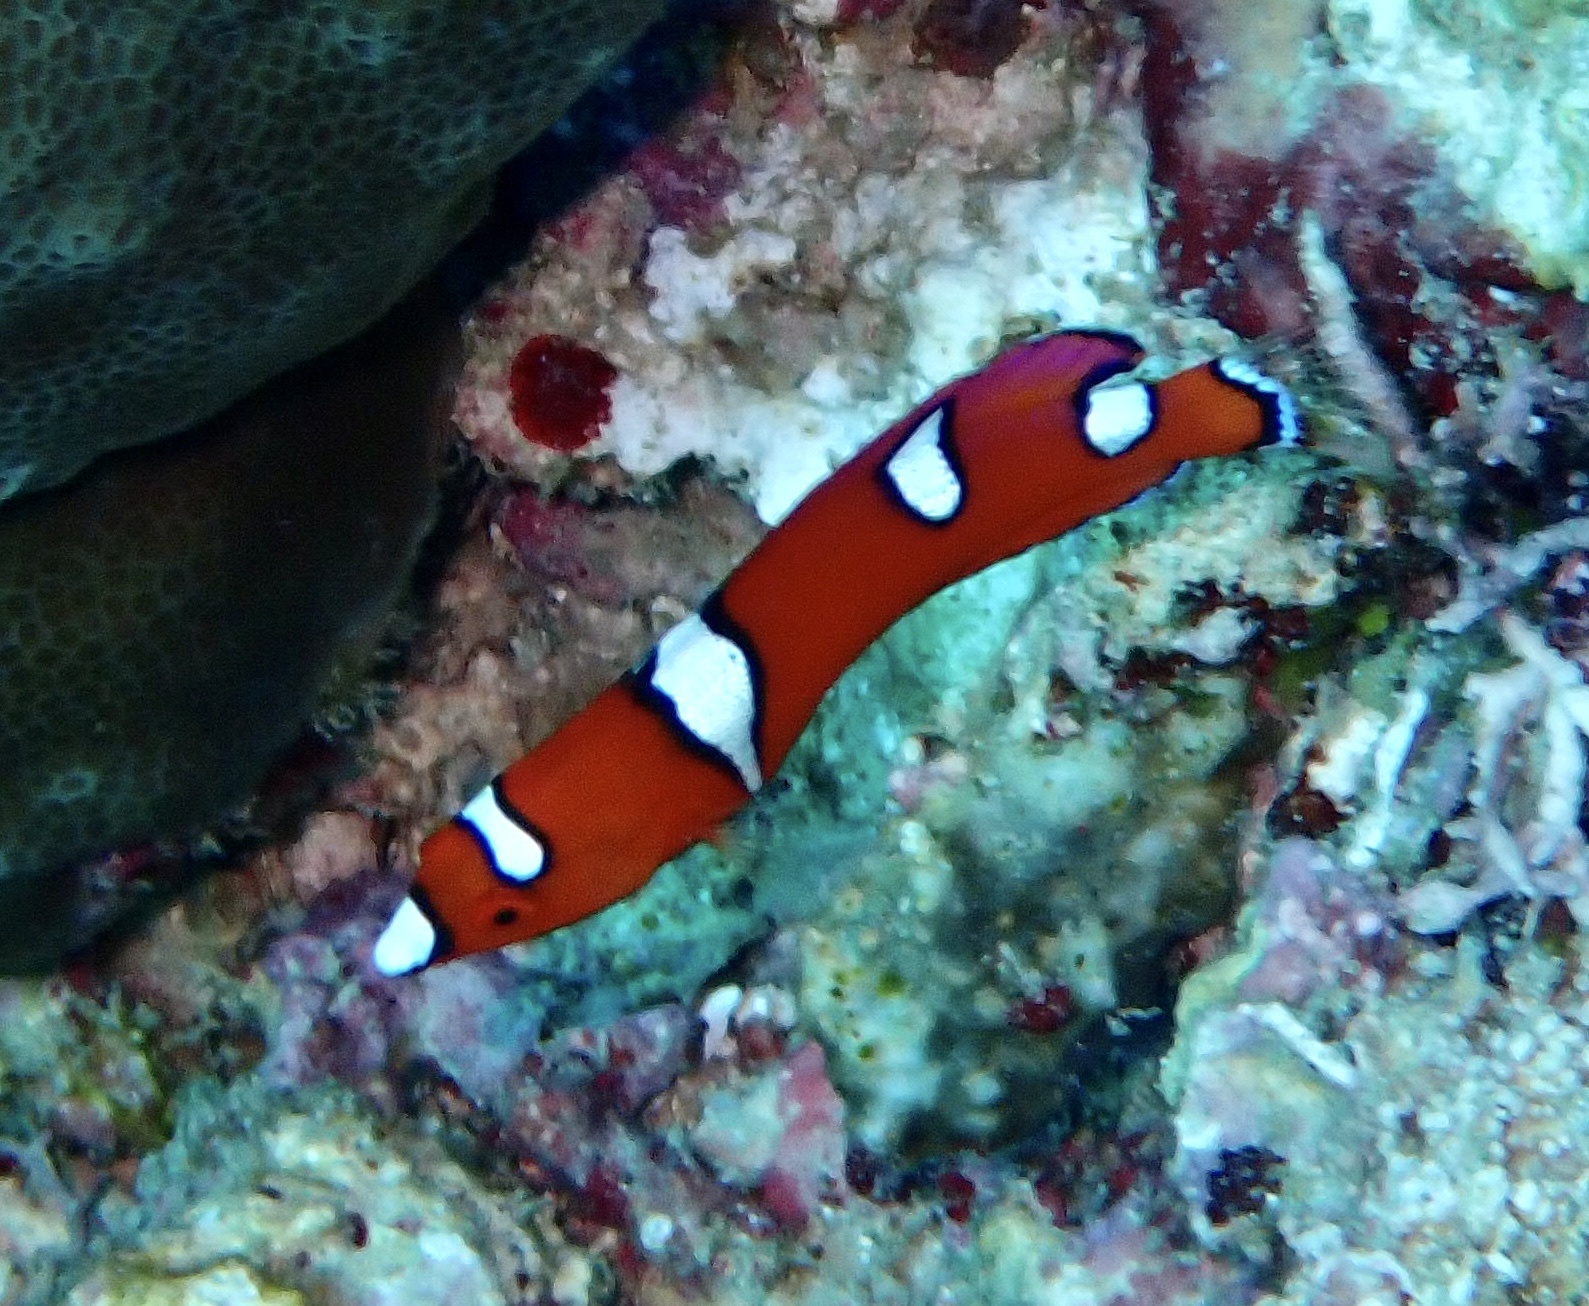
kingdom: Animalia
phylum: Chordata
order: Perciformes
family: Labridae
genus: Coris
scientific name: Coris gaimard
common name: Yellowtail coris
